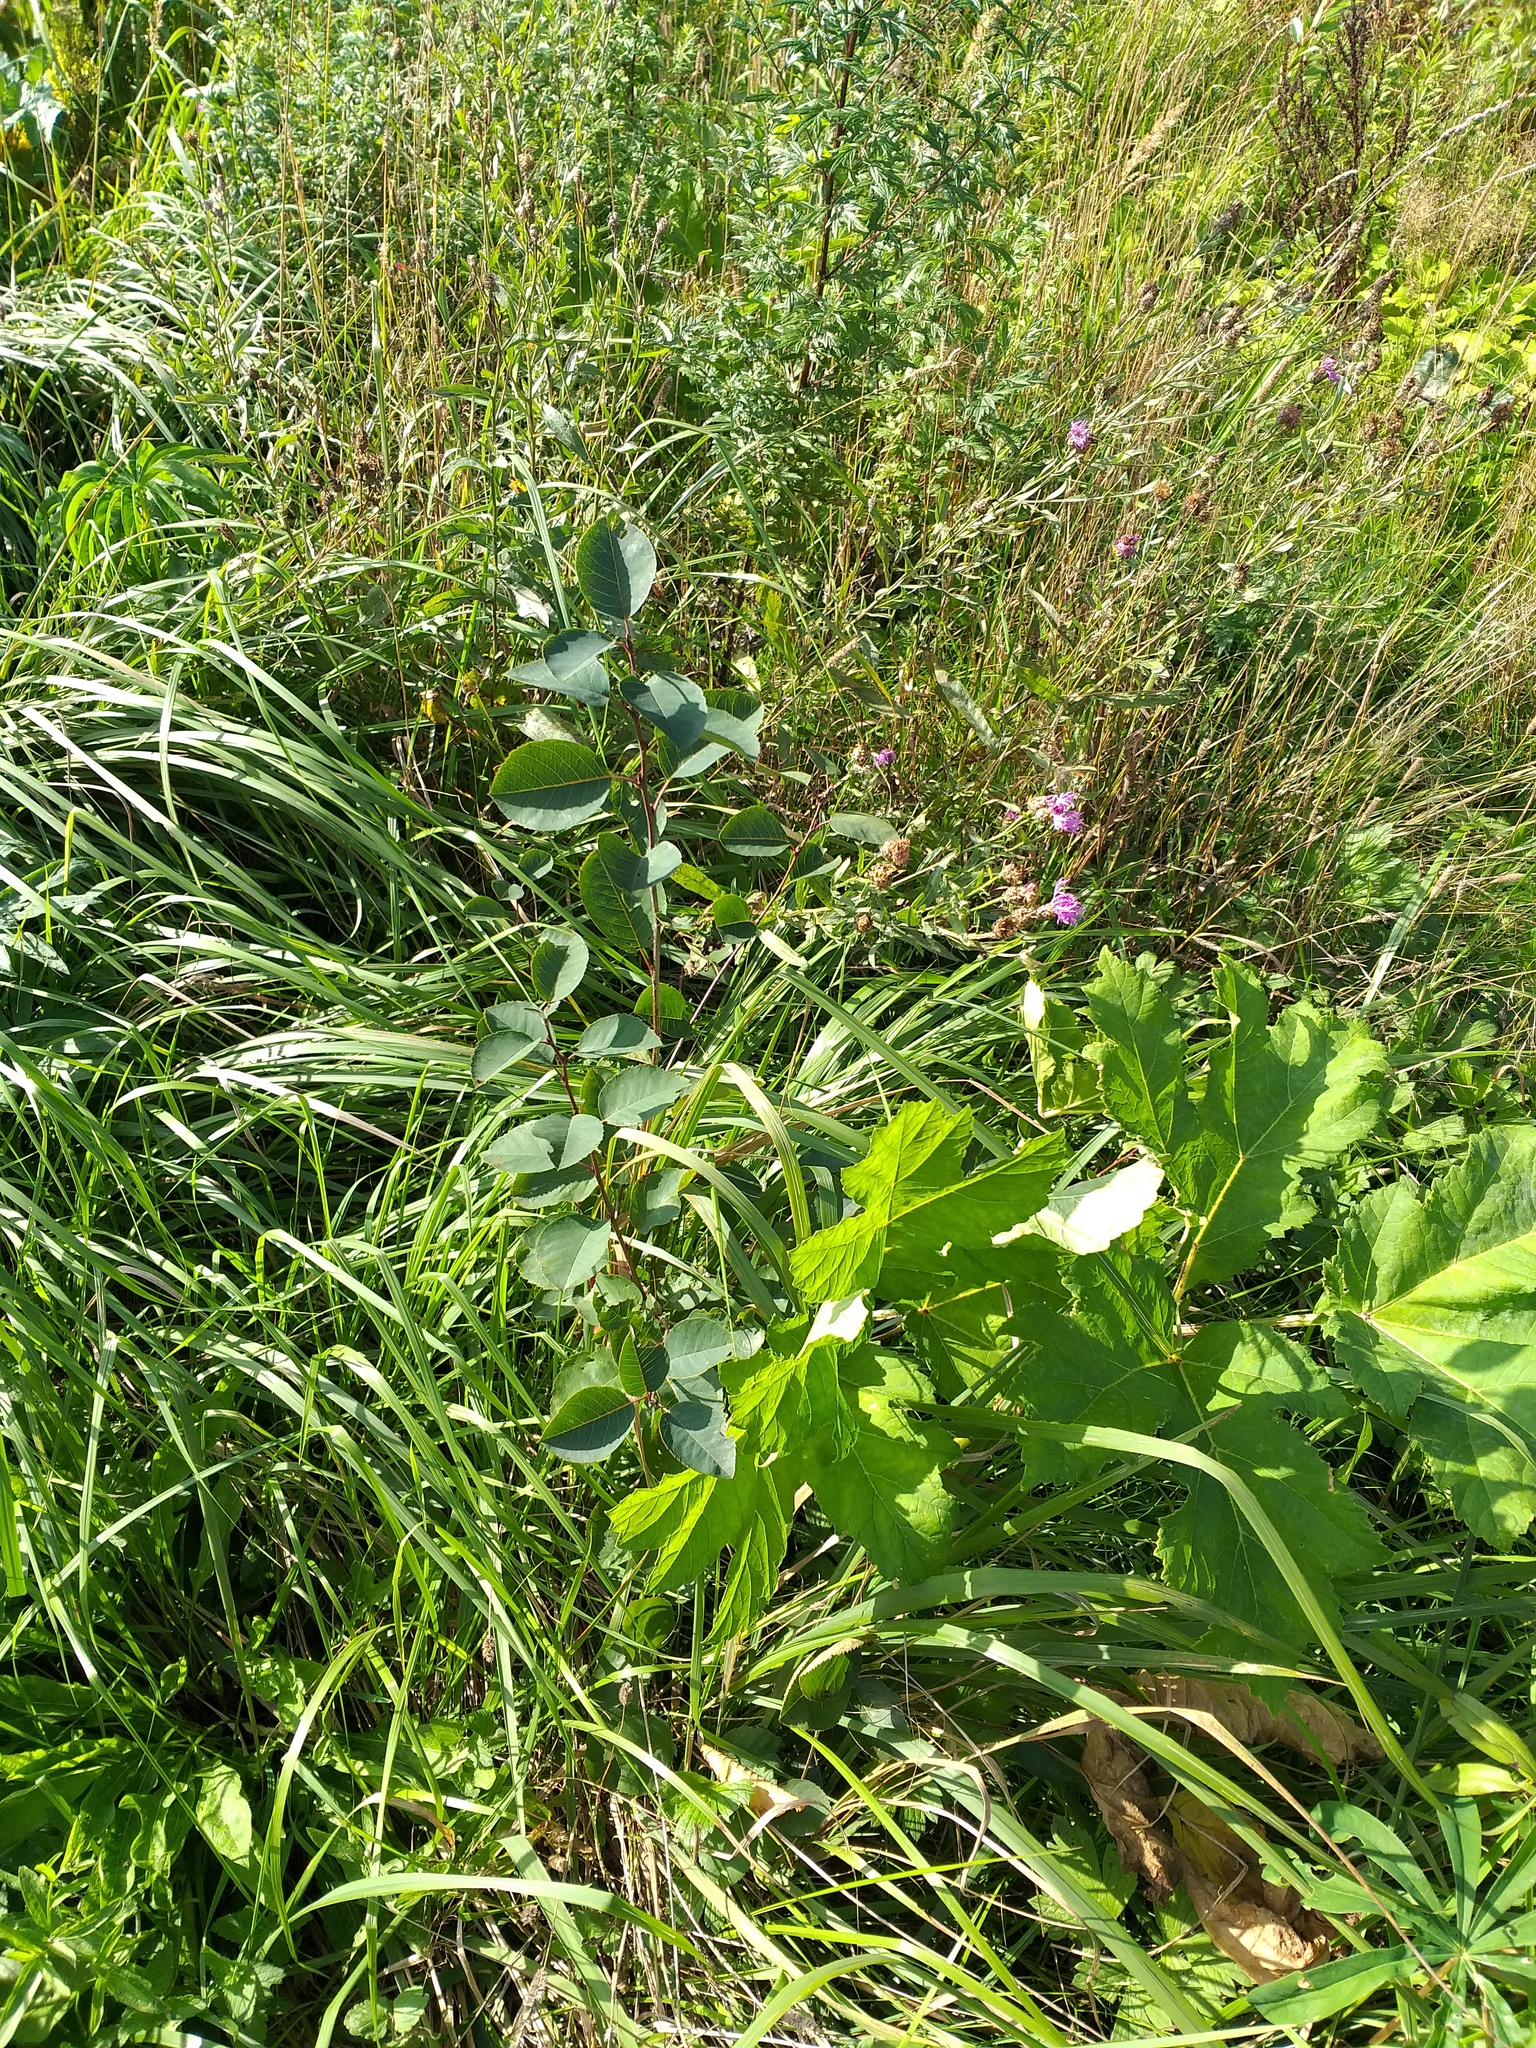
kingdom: Plantae
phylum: Tracheophyta
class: Magnoliopsida
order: Rosales
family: Rosaceae
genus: Amelanchier
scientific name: Amelanchier
